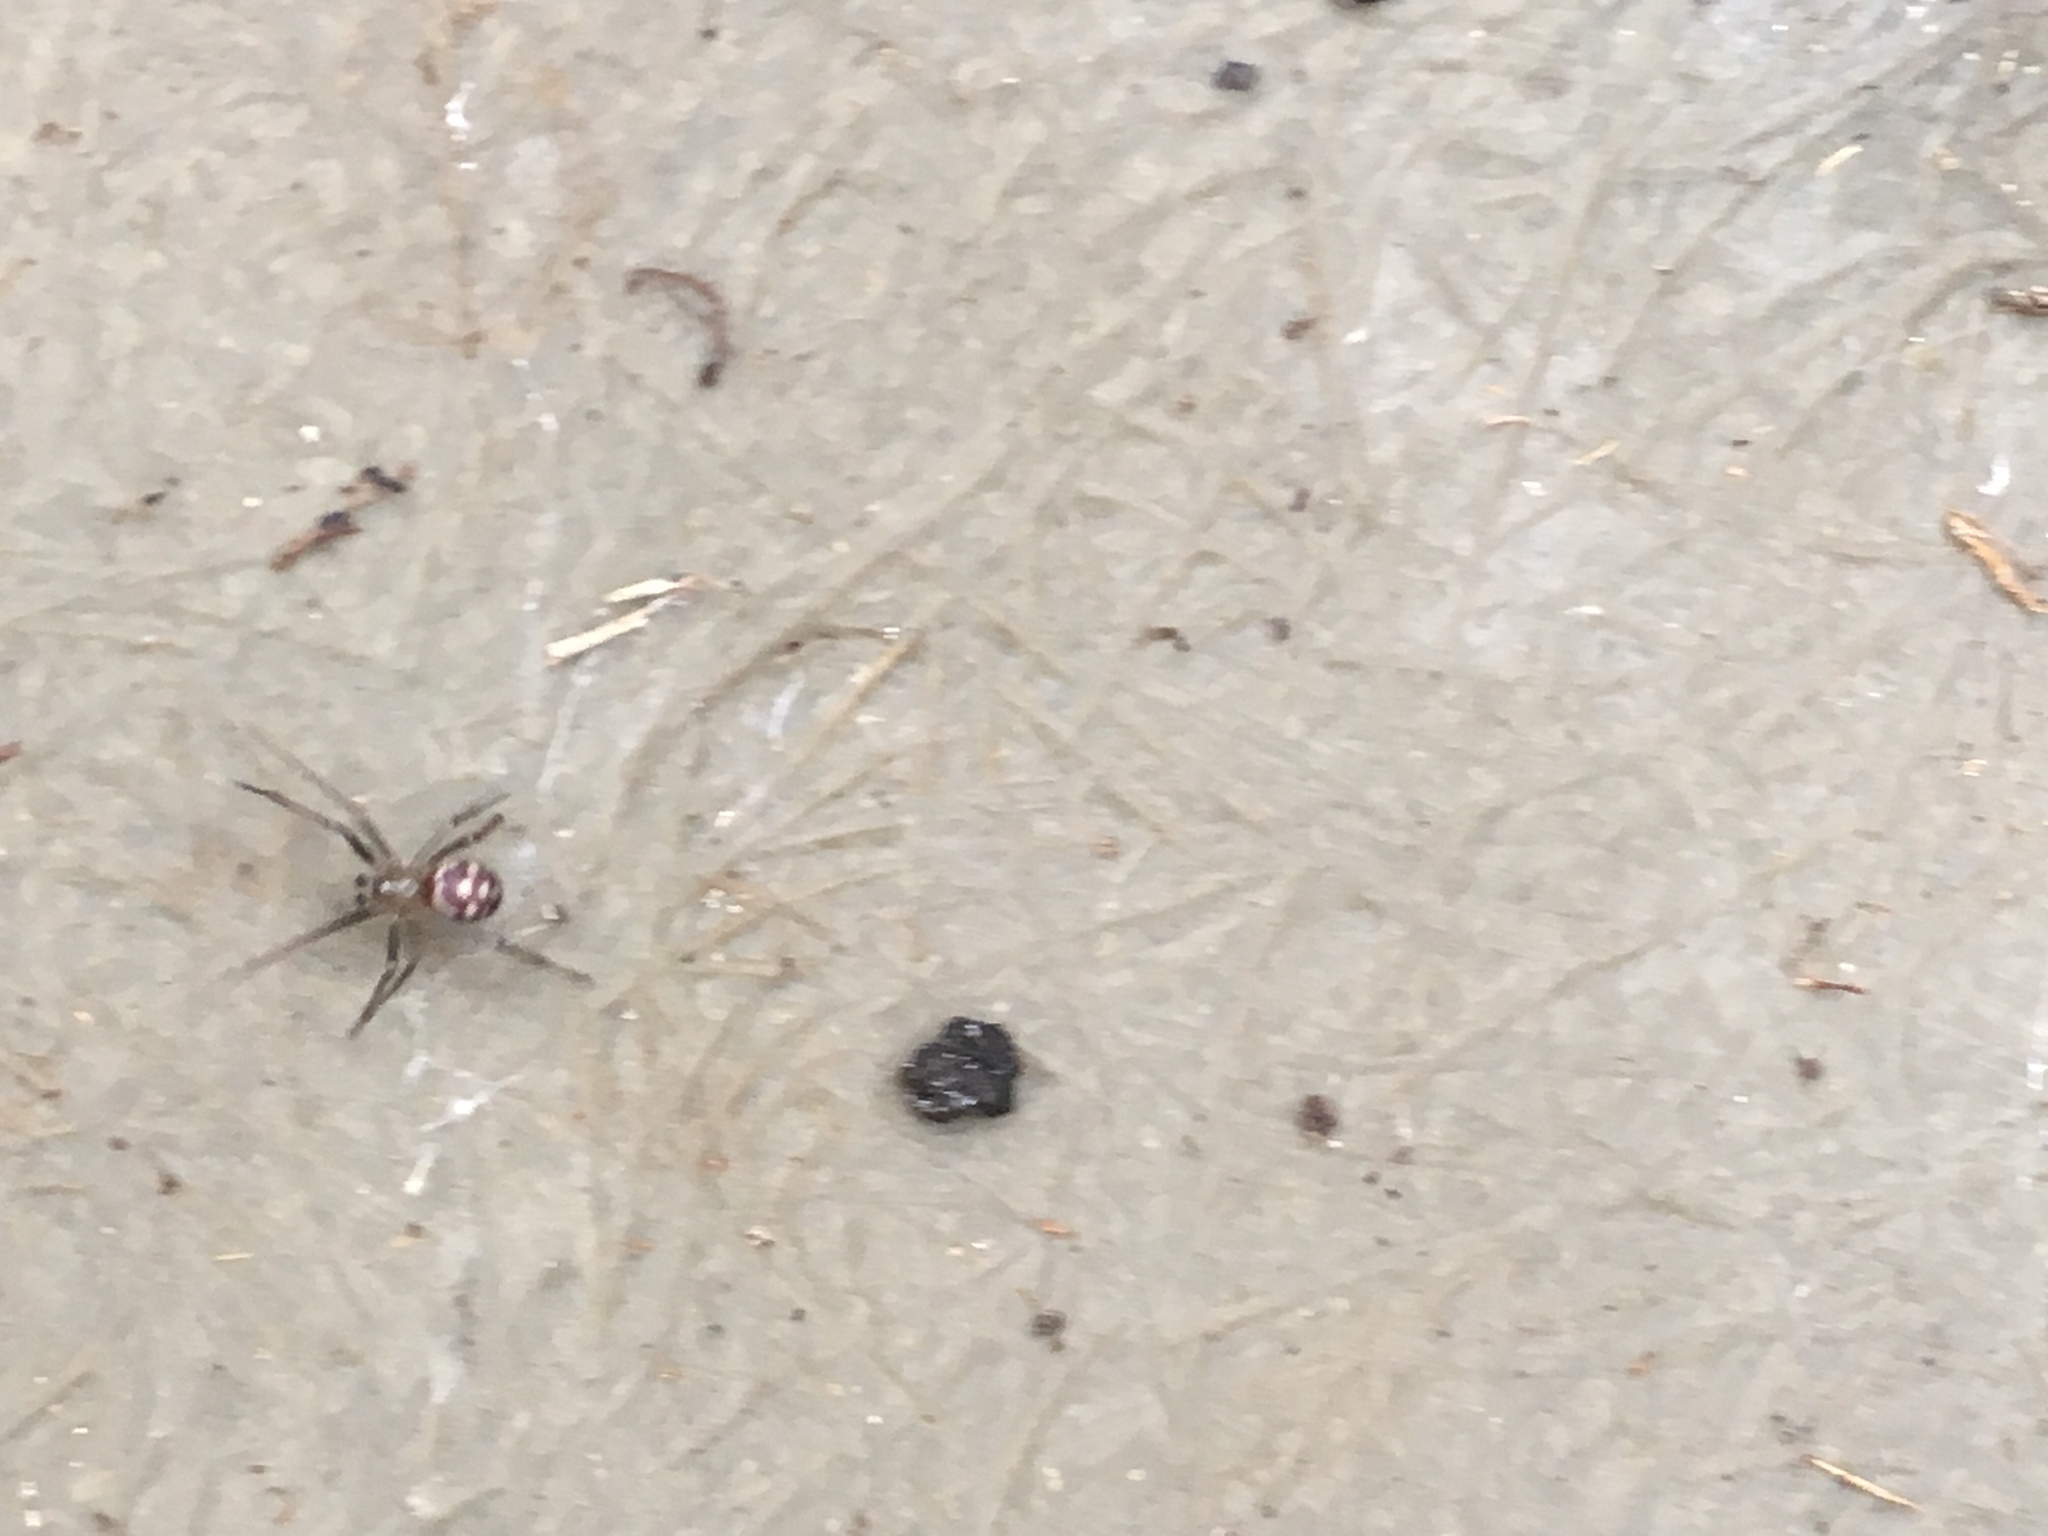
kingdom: Animalia
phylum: Arthropoda
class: Arachnida
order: Araneae
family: Theridiidae
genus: Steatoda
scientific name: Steatoda grossa
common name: False black widow
